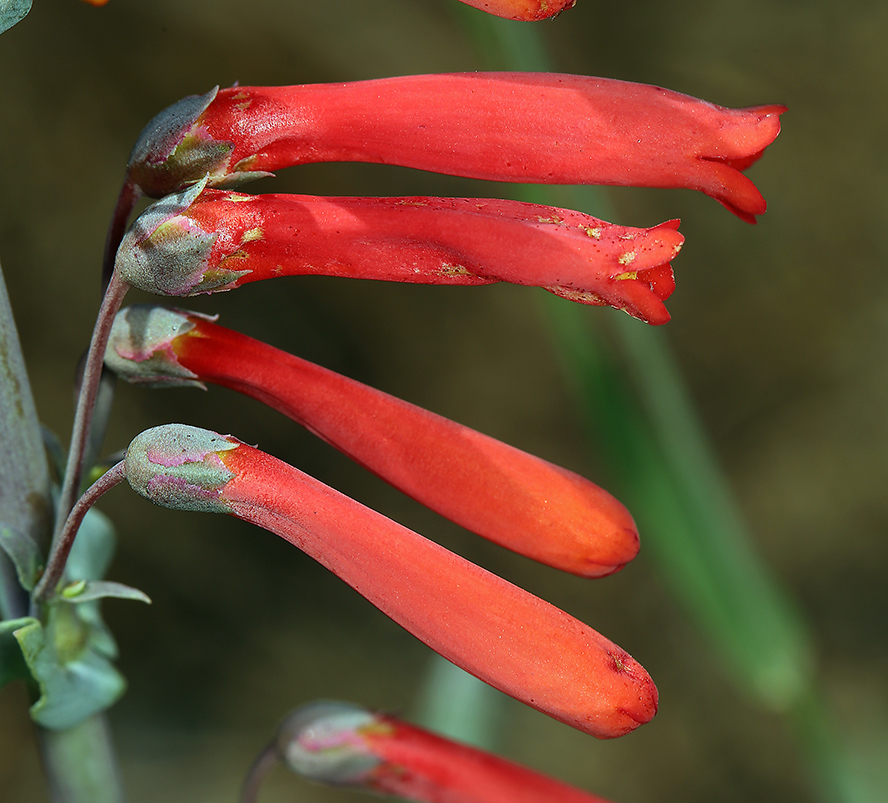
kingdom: Plantae
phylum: Tracheophyta
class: Magnoliopsida
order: Lamiales
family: Plantaginaceae
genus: Penstemon
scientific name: Penstemon centranthifolius
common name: Scarlet bugler
